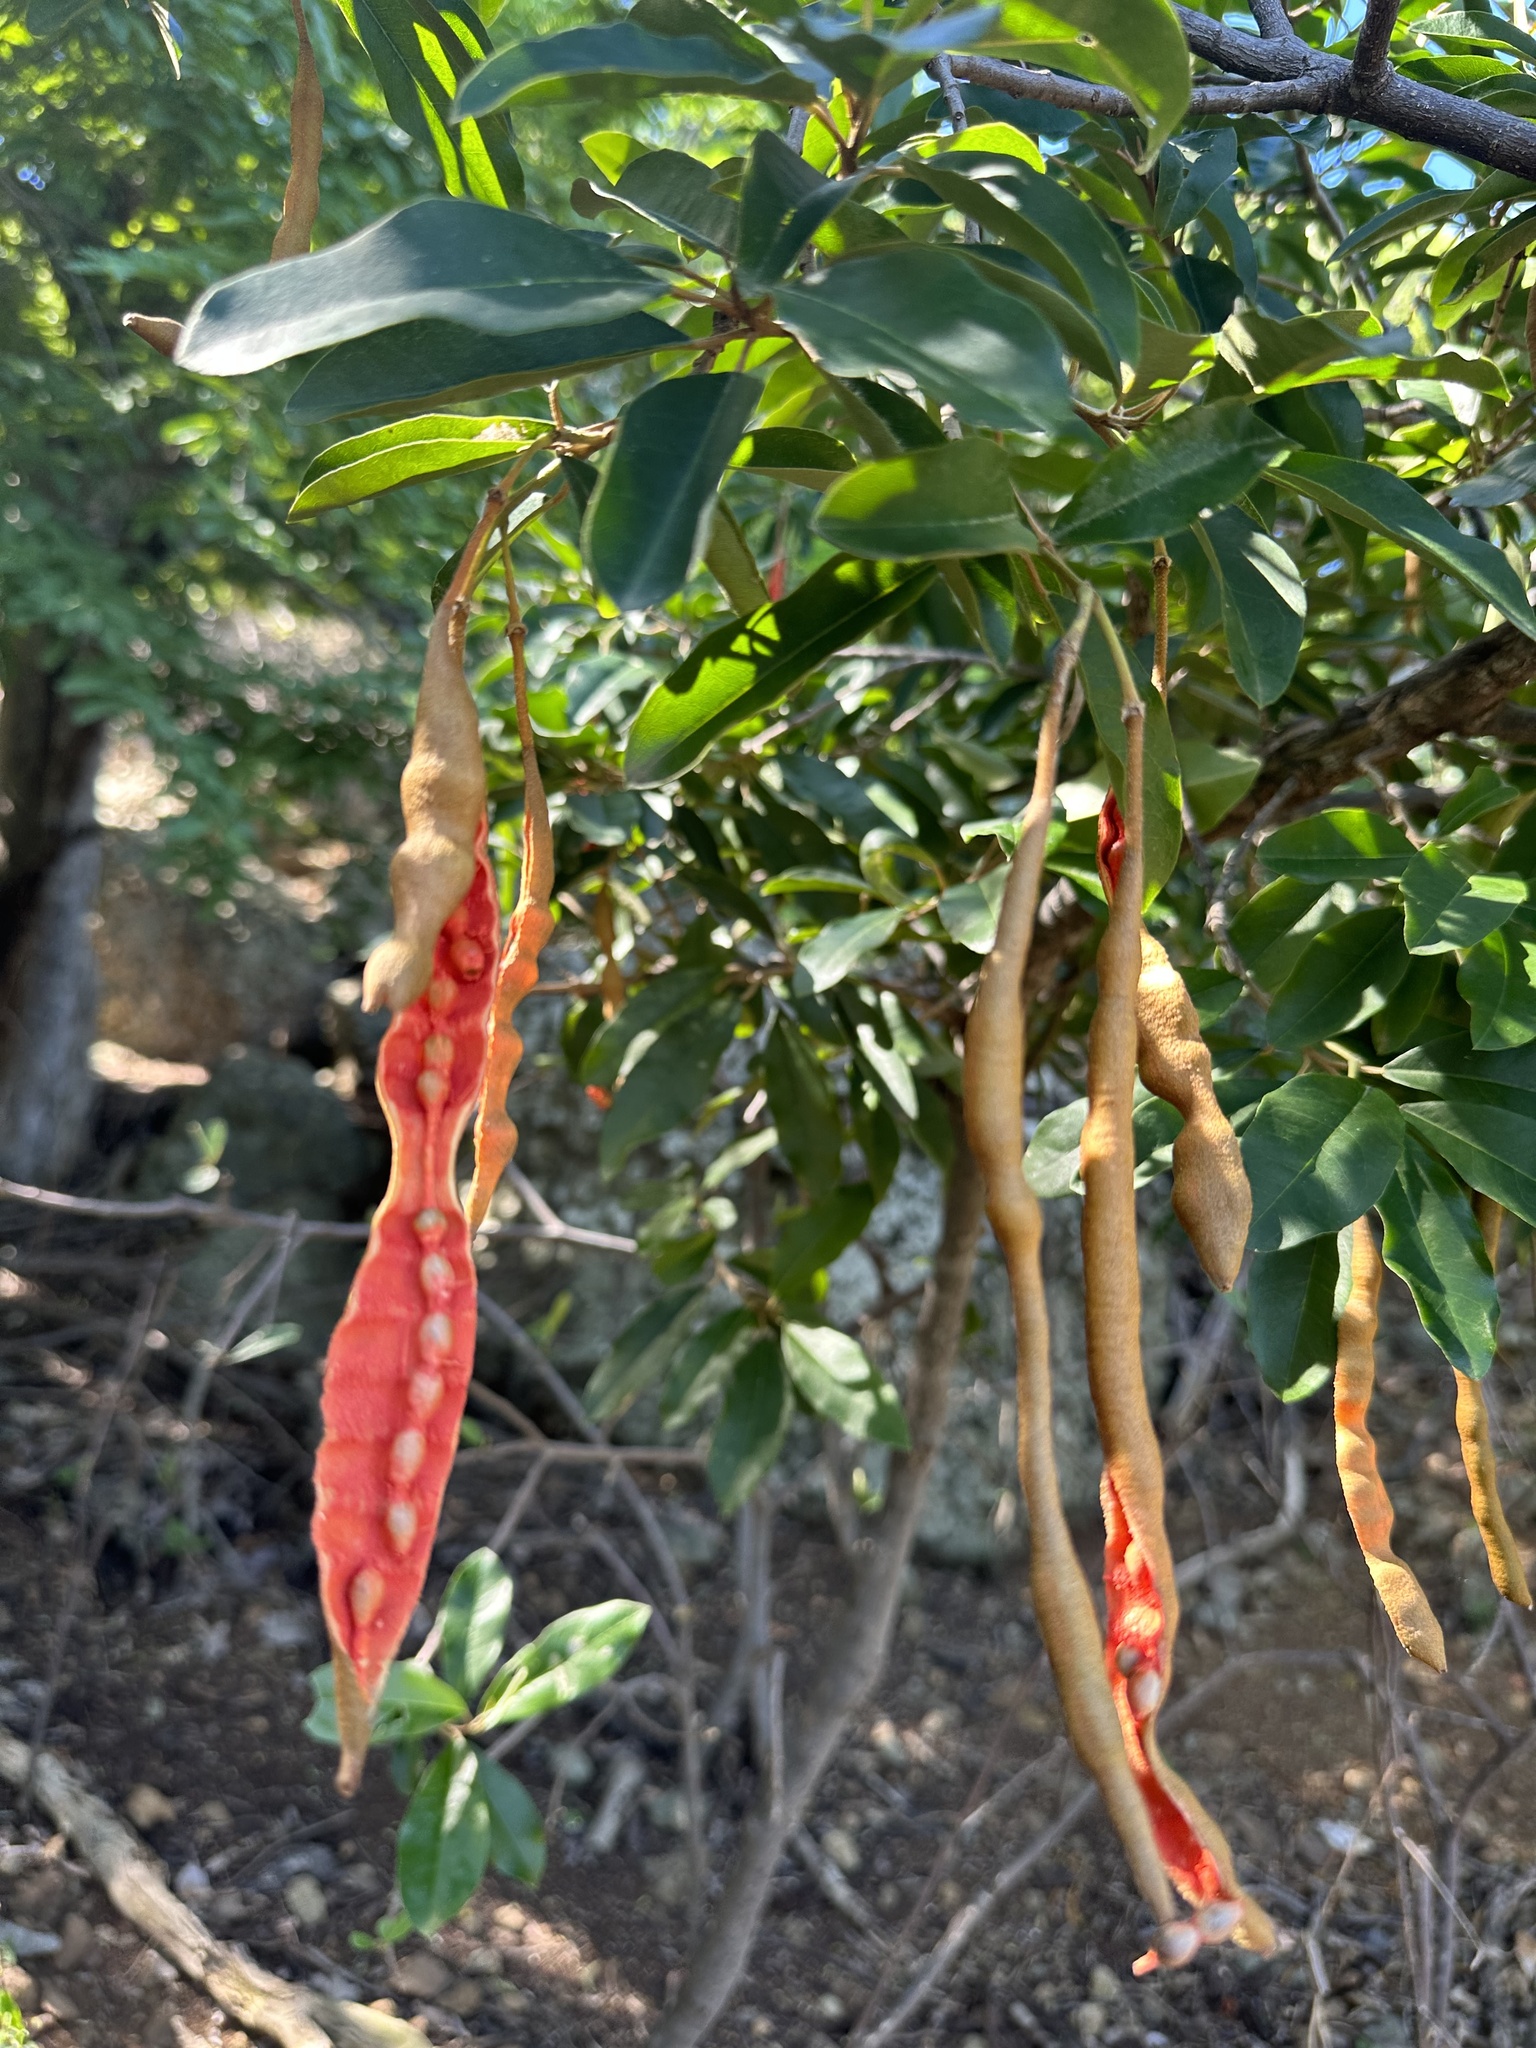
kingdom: Plantae
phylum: Tracheophyta
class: Magnoliopsida
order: Brassicales
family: Capparaceae
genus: Quadrella
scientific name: Quadrella cynophallophora
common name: Black willow
